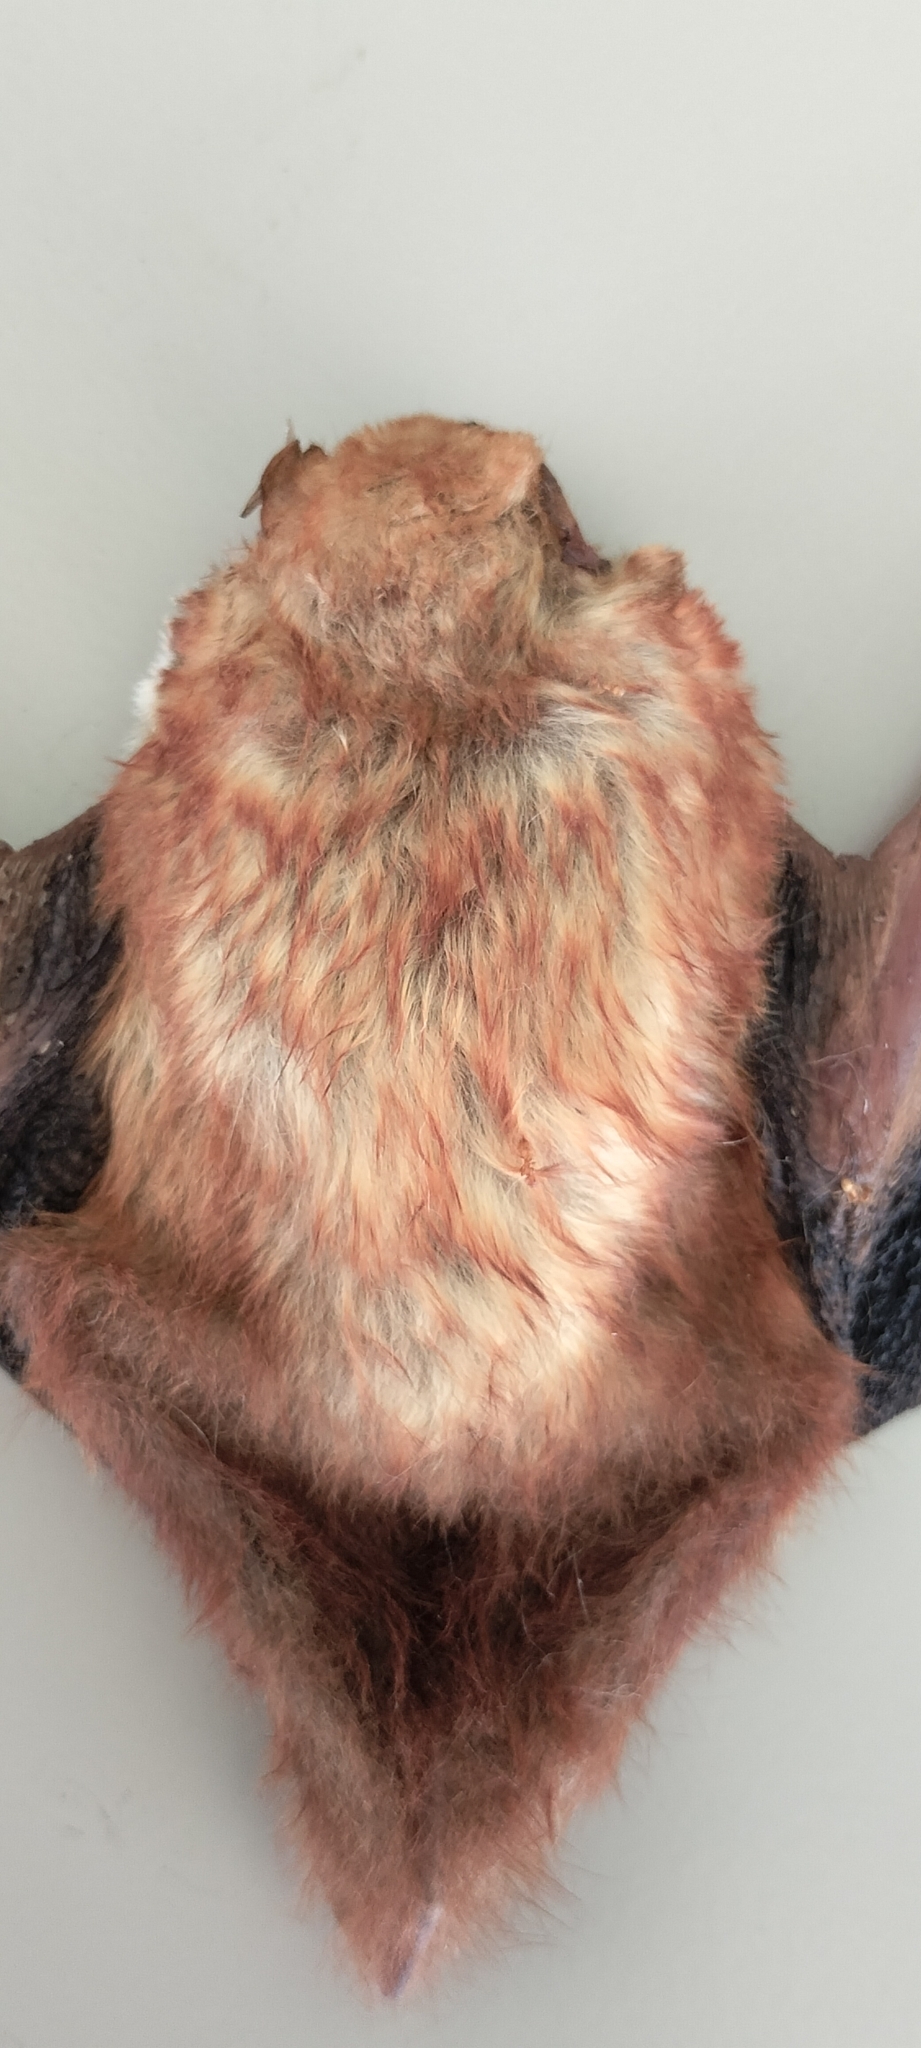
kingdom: Animalia
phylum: Chordata
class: Mammalia
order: Chiroptera
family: Vespertilionidae
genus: Lasiurus
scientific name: Lasiurus frantzii
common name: Desert red bat
